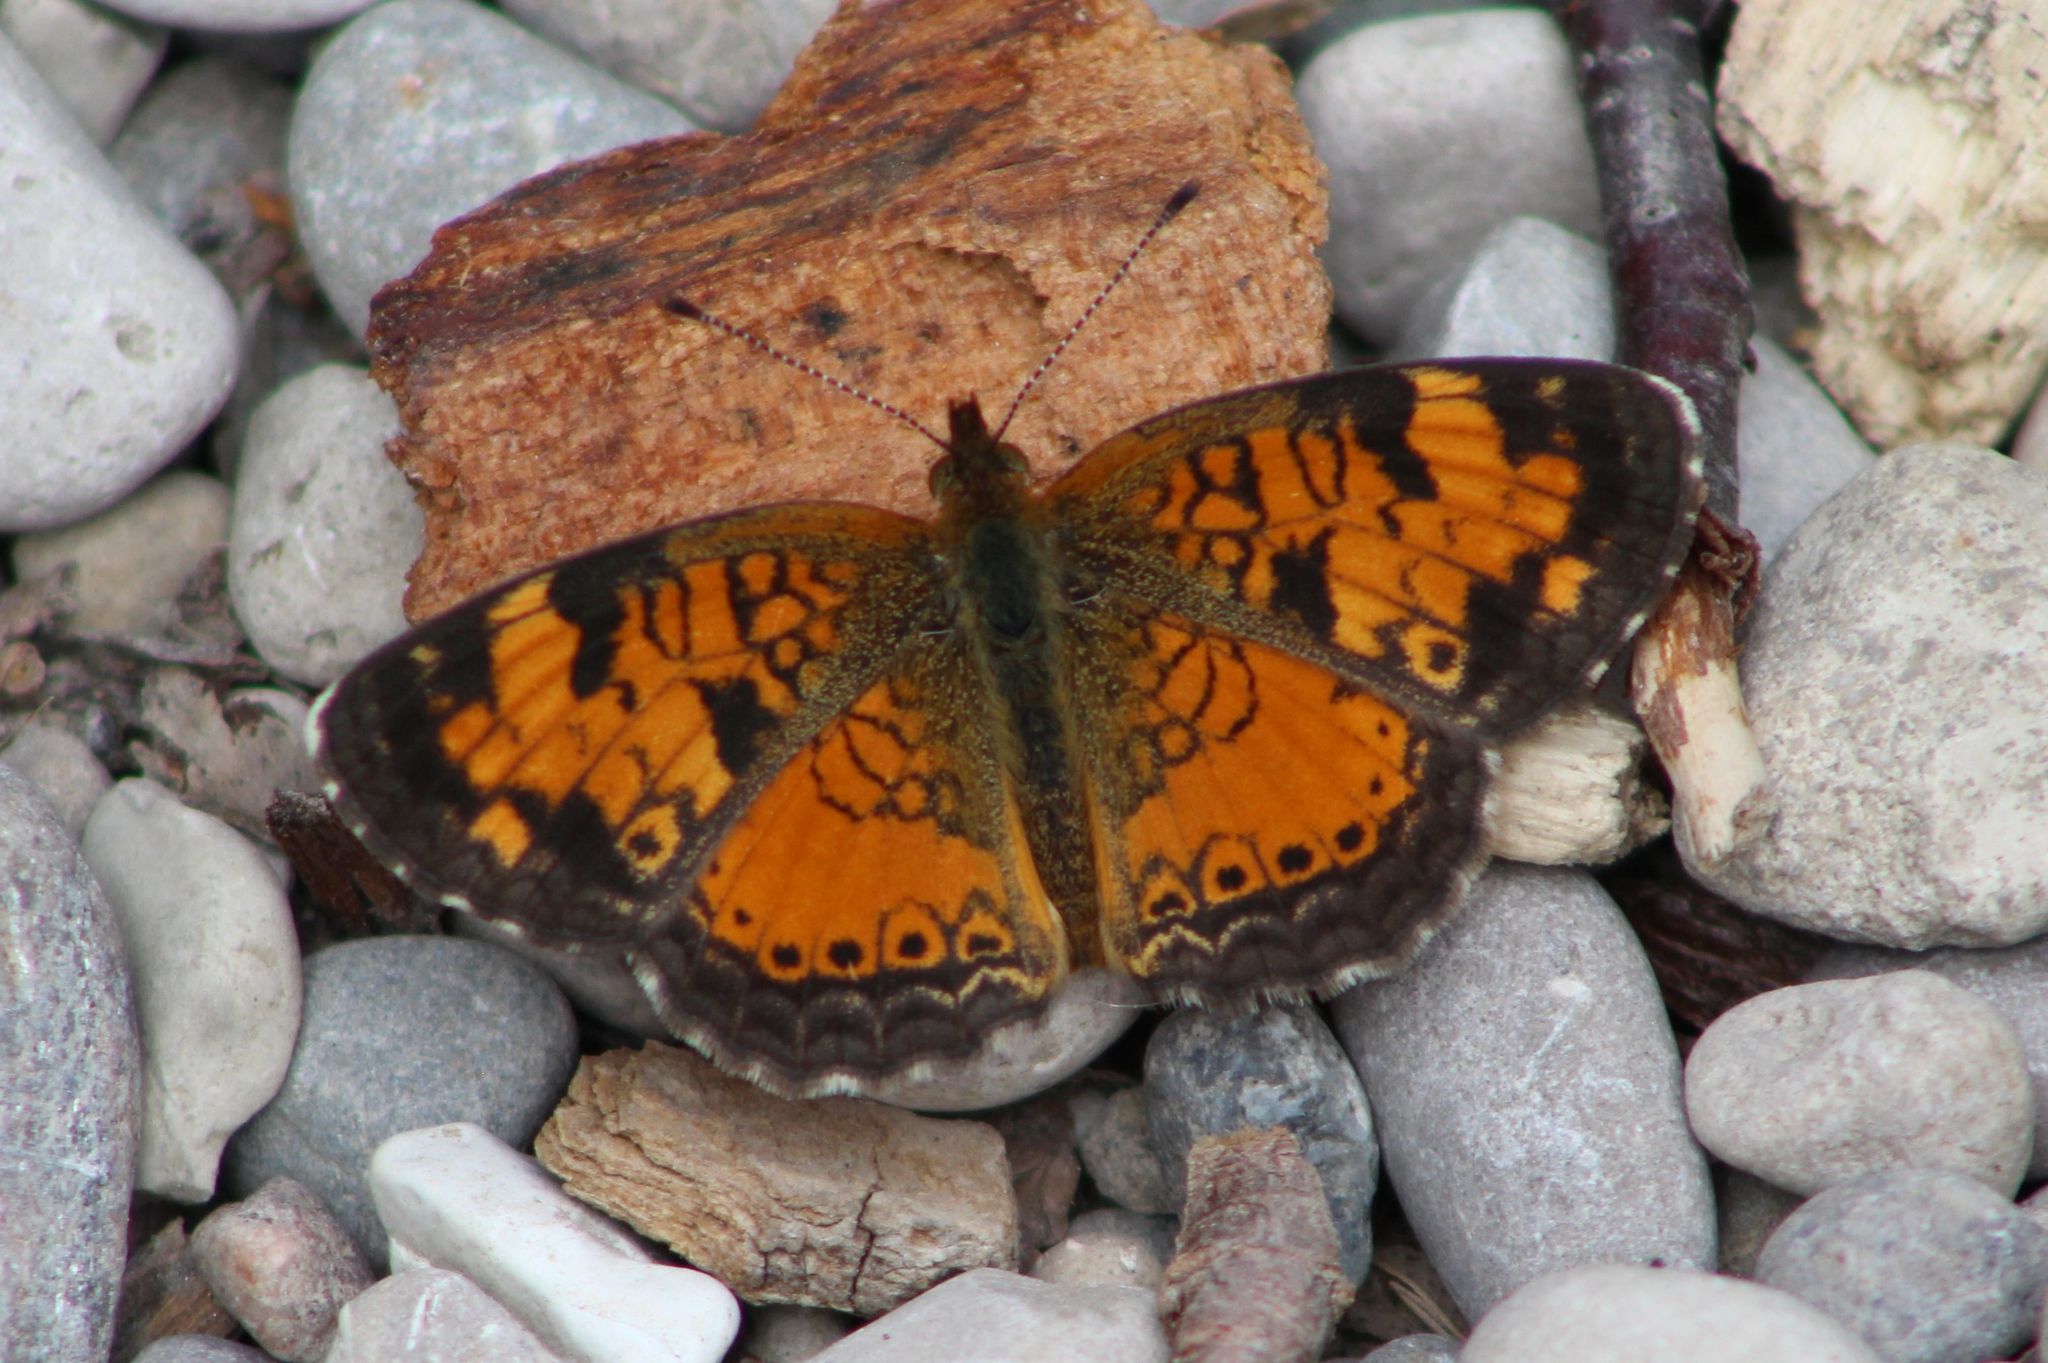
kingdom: Animalia
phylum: Arthropoda
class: Insecta
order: Lepidoptera
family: Nymphalidae
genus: Phyciodes
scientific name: Phyciodes tharos
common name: Pearl crescent
